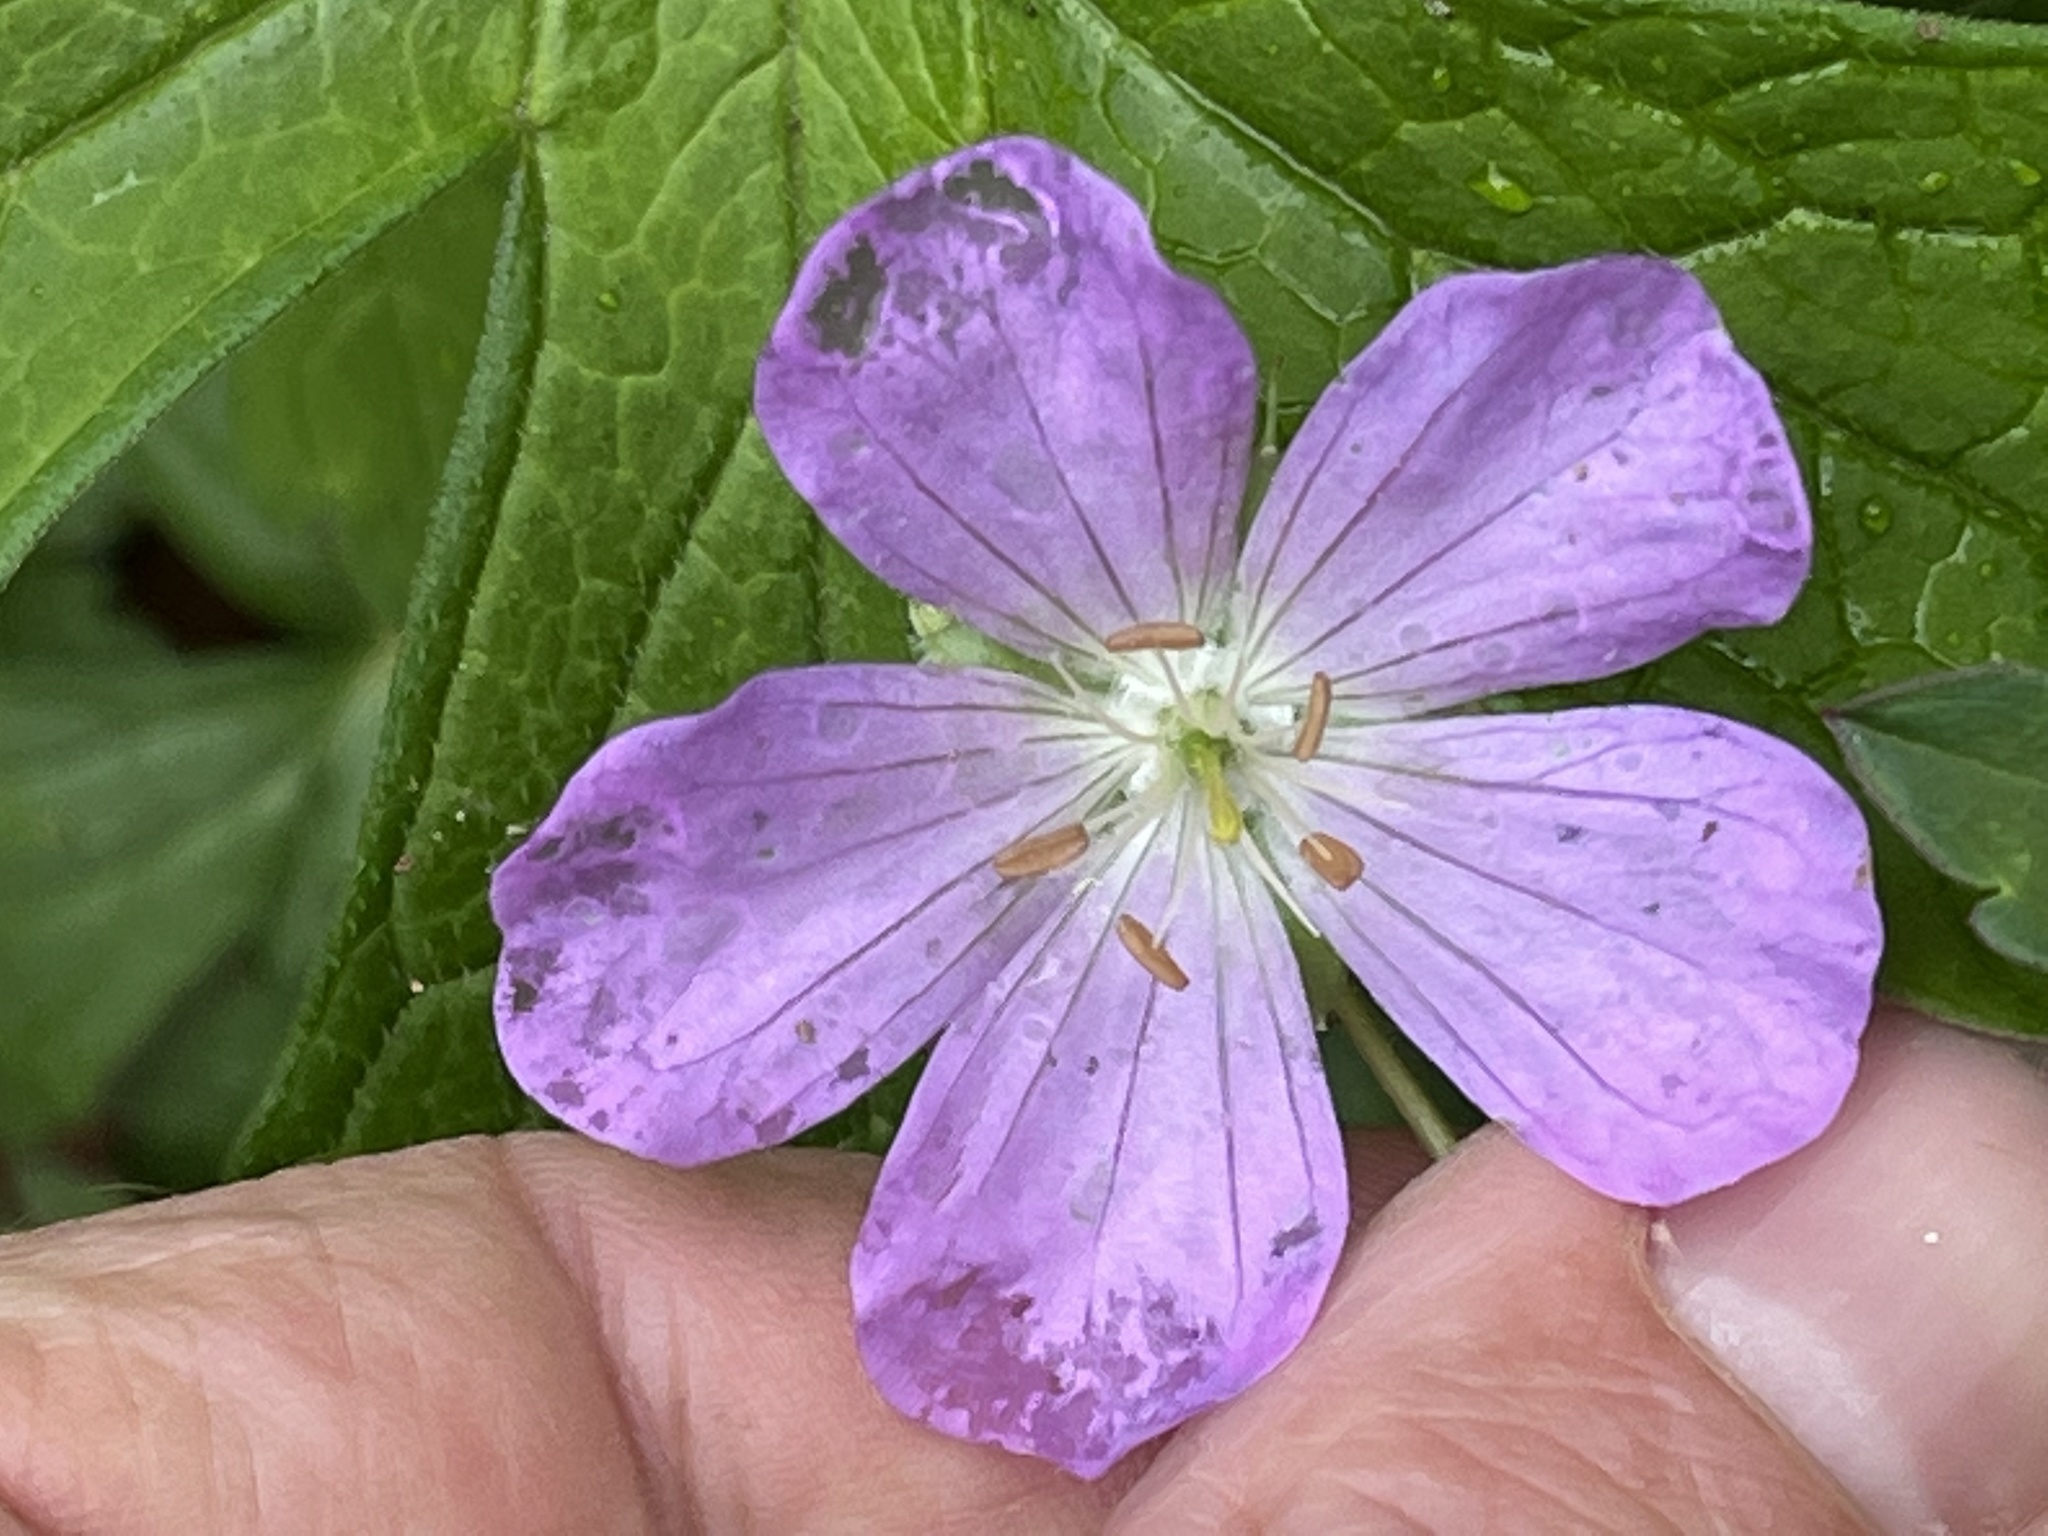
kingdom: Plantae
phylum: Tracheophyta
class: Magnoliopsida
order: Geraniales
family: Geraniaceae
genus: Geranium
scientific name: Geranium maculatum
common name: Spotted geranium
